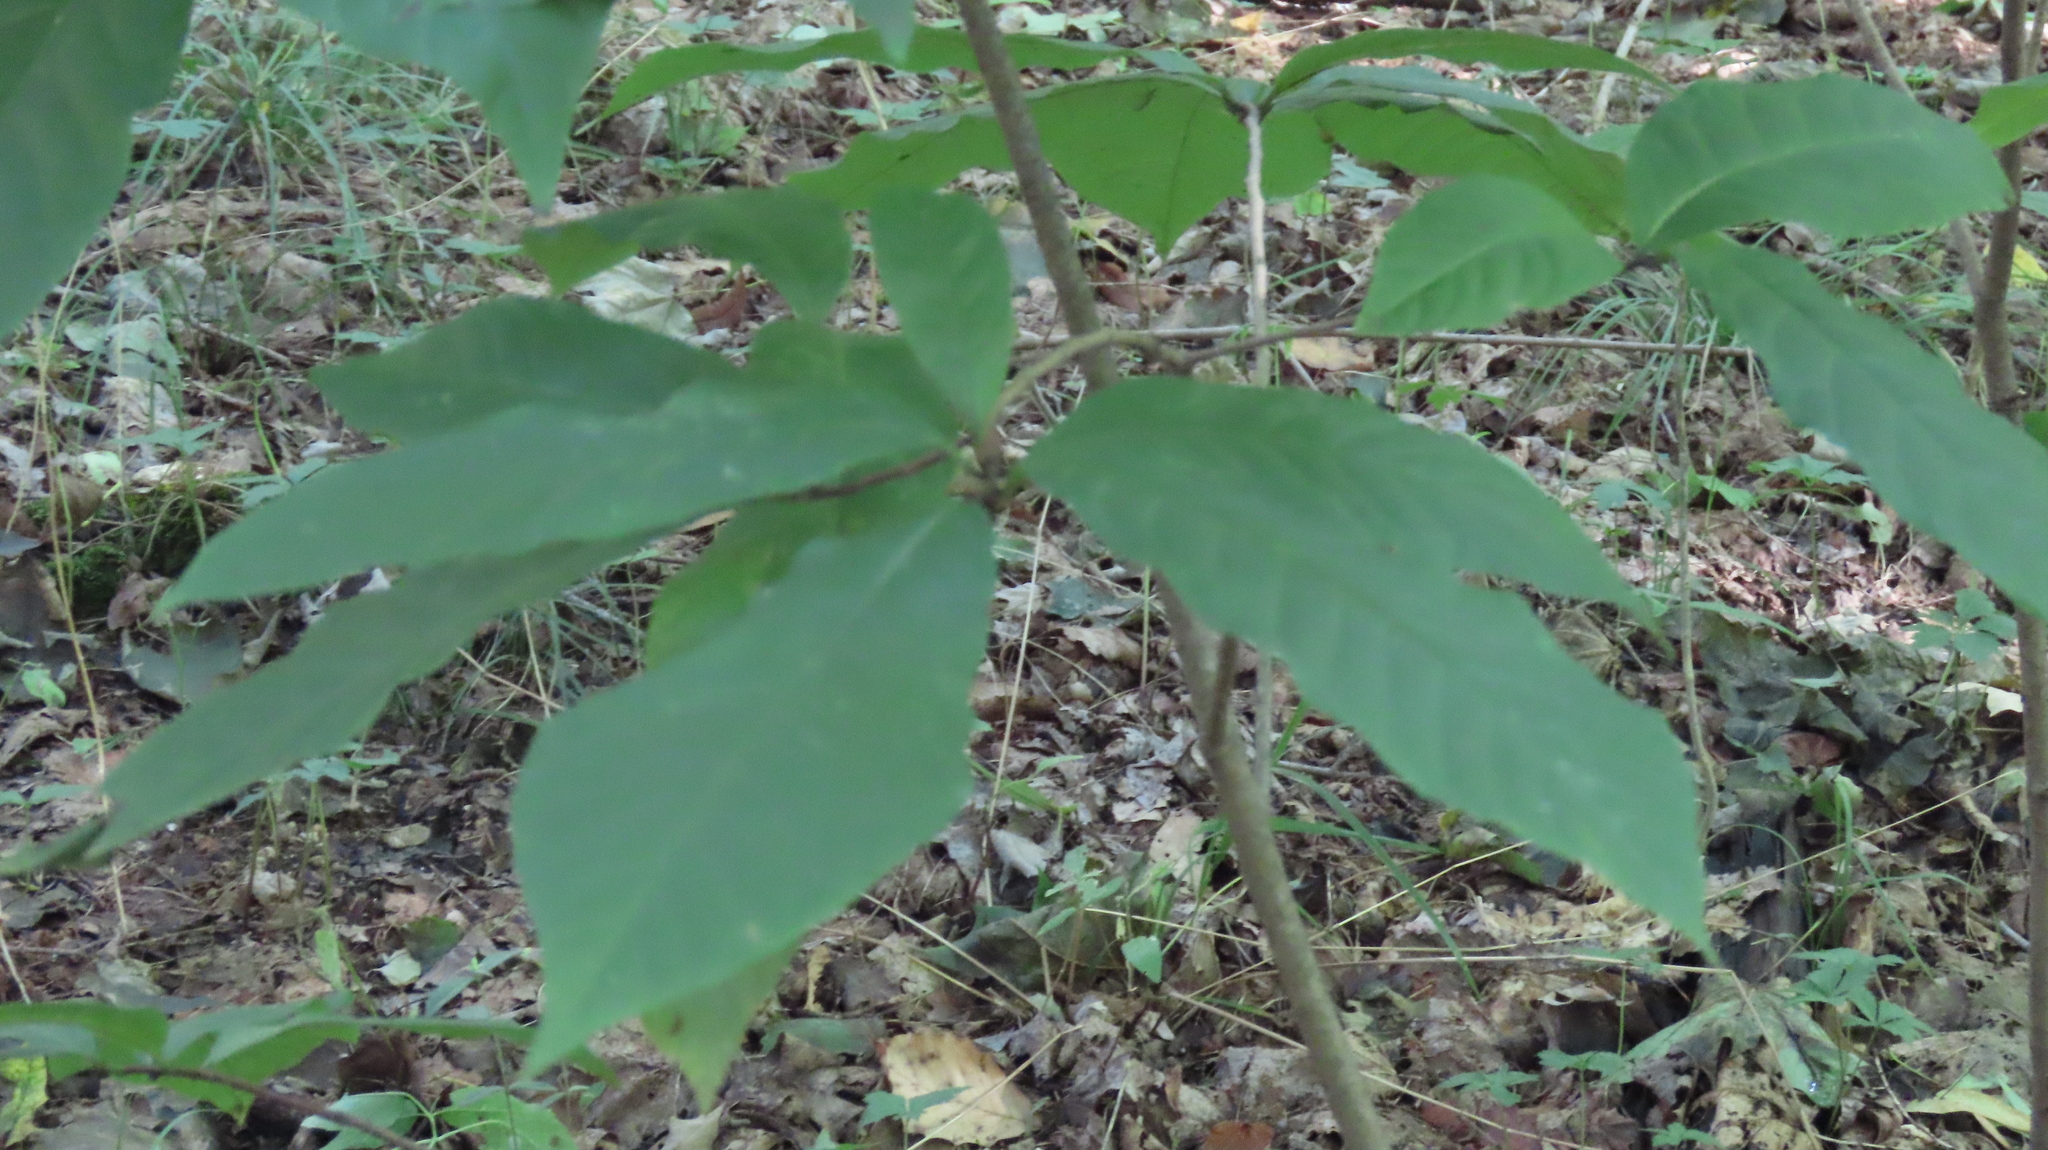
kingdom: Plantae
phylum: Tracheophyta
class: Magnoliopsida
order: Magnoliales
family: Annonaceae
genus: Asimina
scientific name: Asimina triloba
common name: Dog-banana
